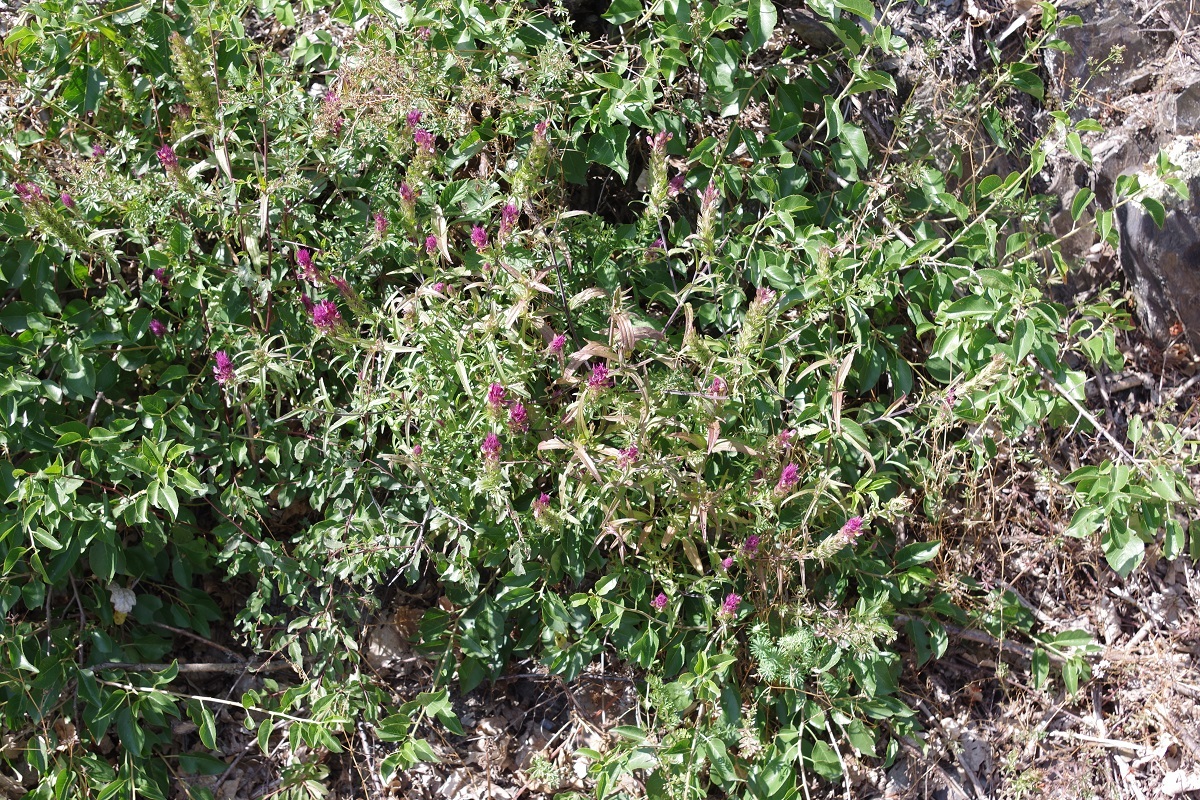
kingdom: Plantae
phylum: Tracheophyta
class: Magnoliopsida
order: Lamiales
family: Orobanchaceae
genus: Melampyrum
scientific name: Melampyrum arvense
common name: Field cow-wheat
